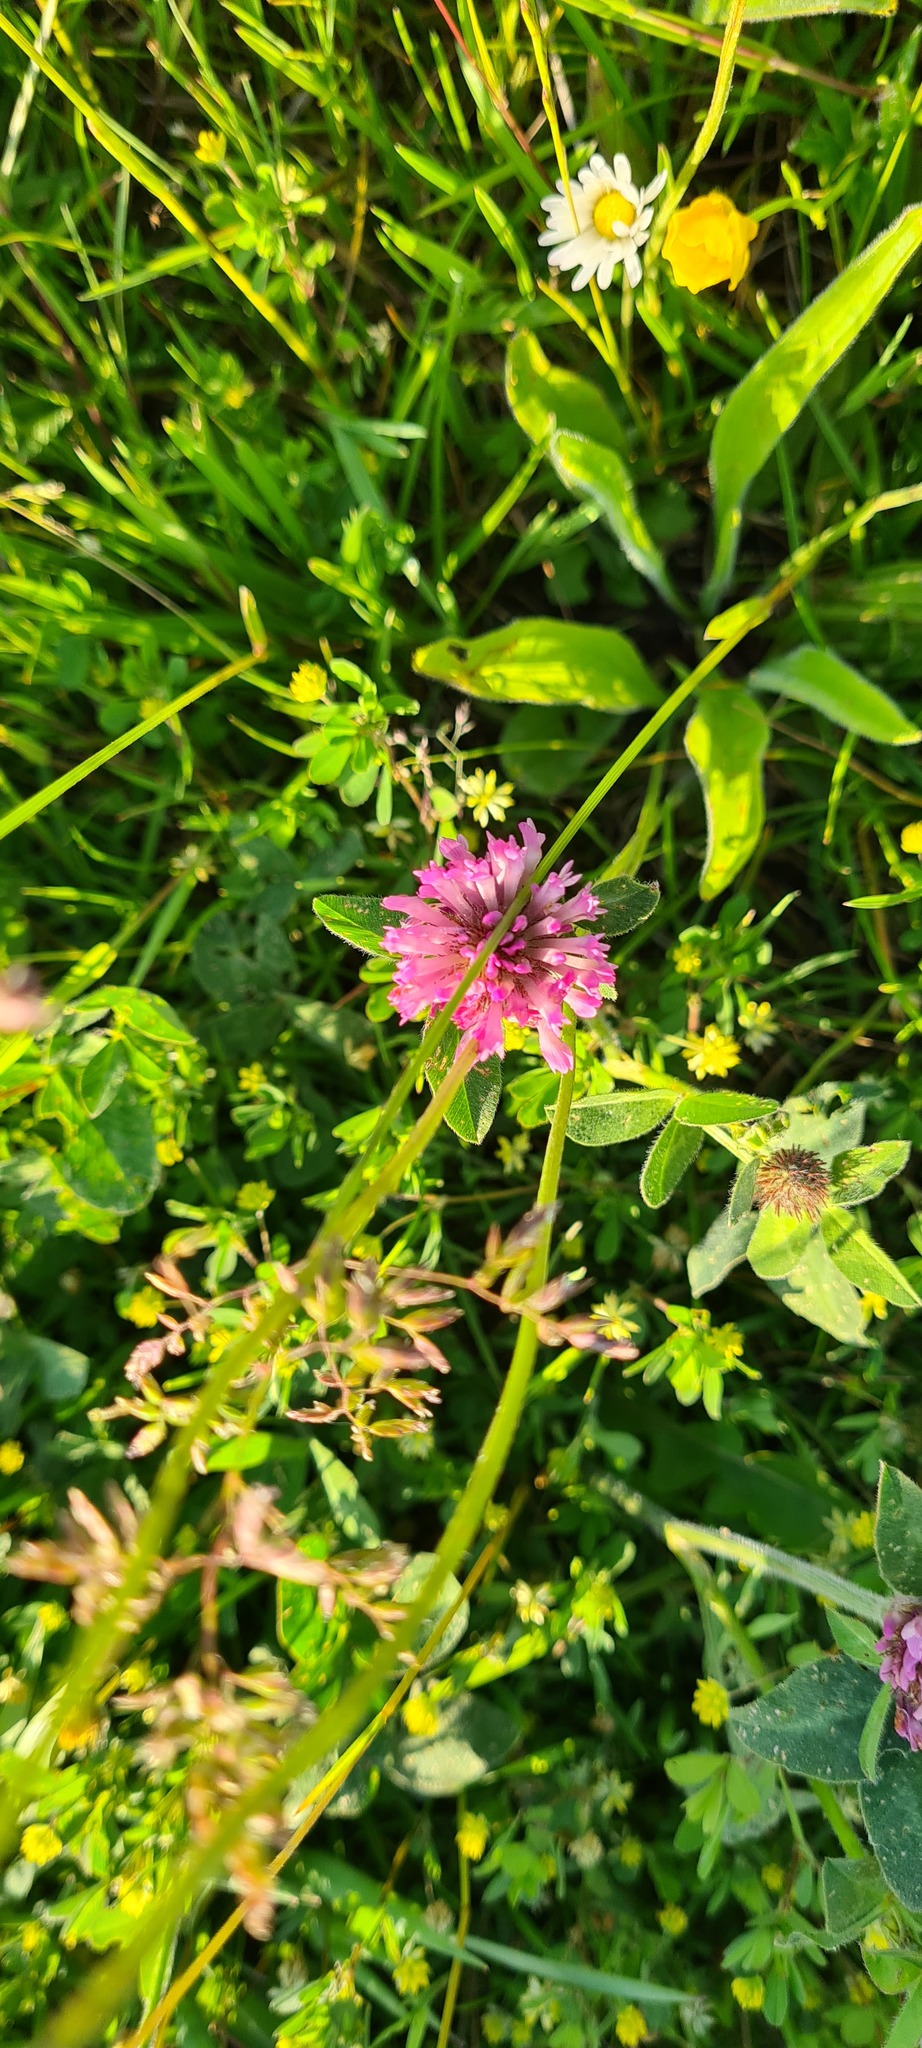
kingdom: Plantae
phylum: Tracheophyta
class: Magnoliopsida
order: Fabales
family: Fabaceae
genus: Trifolium
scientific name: Trifolium pratense
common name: Red clover
